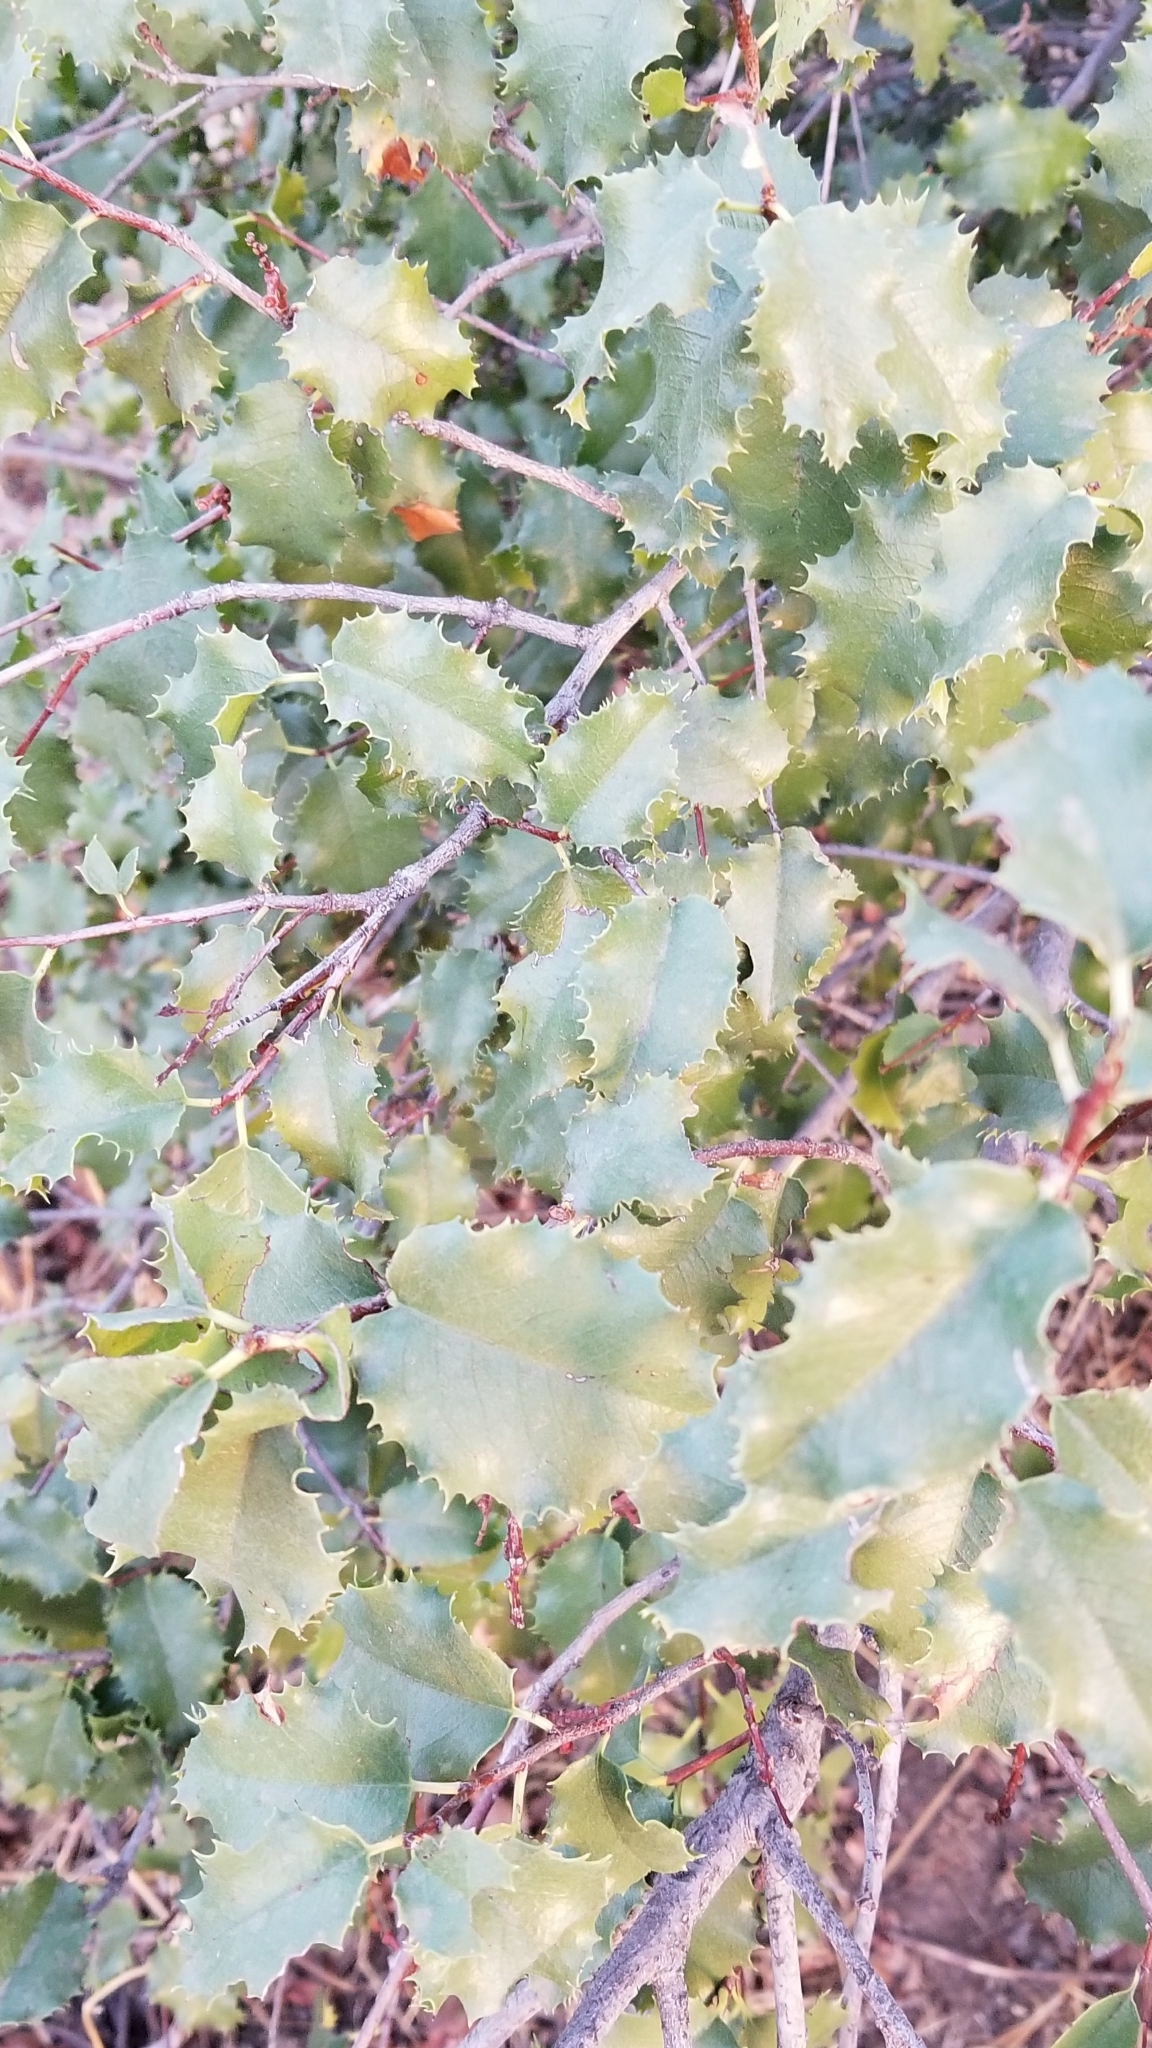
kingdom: Plantae
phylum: Tracheophyta
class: Magnoliopsida
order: Rosales
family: Rosaceae
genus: Prunus
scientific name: Prunus ilicifolia
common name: Hollyleaf cherry
